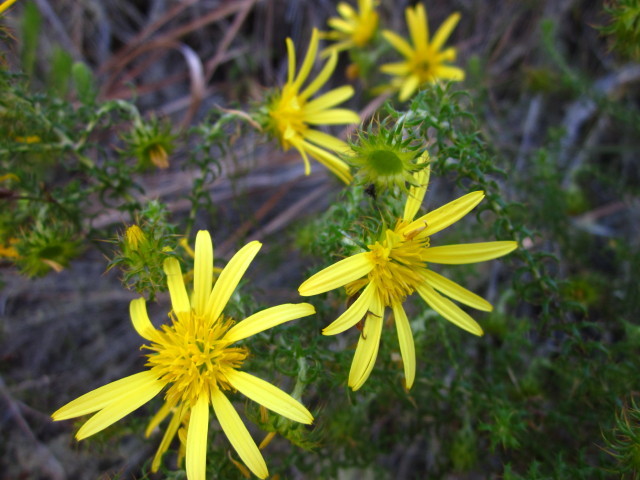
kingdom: Plantae
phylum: Tracheophyta
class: Magnoliopsida
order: Asterales
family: Asteraceae
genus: Cullumia
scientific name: Cullumia decurrens
